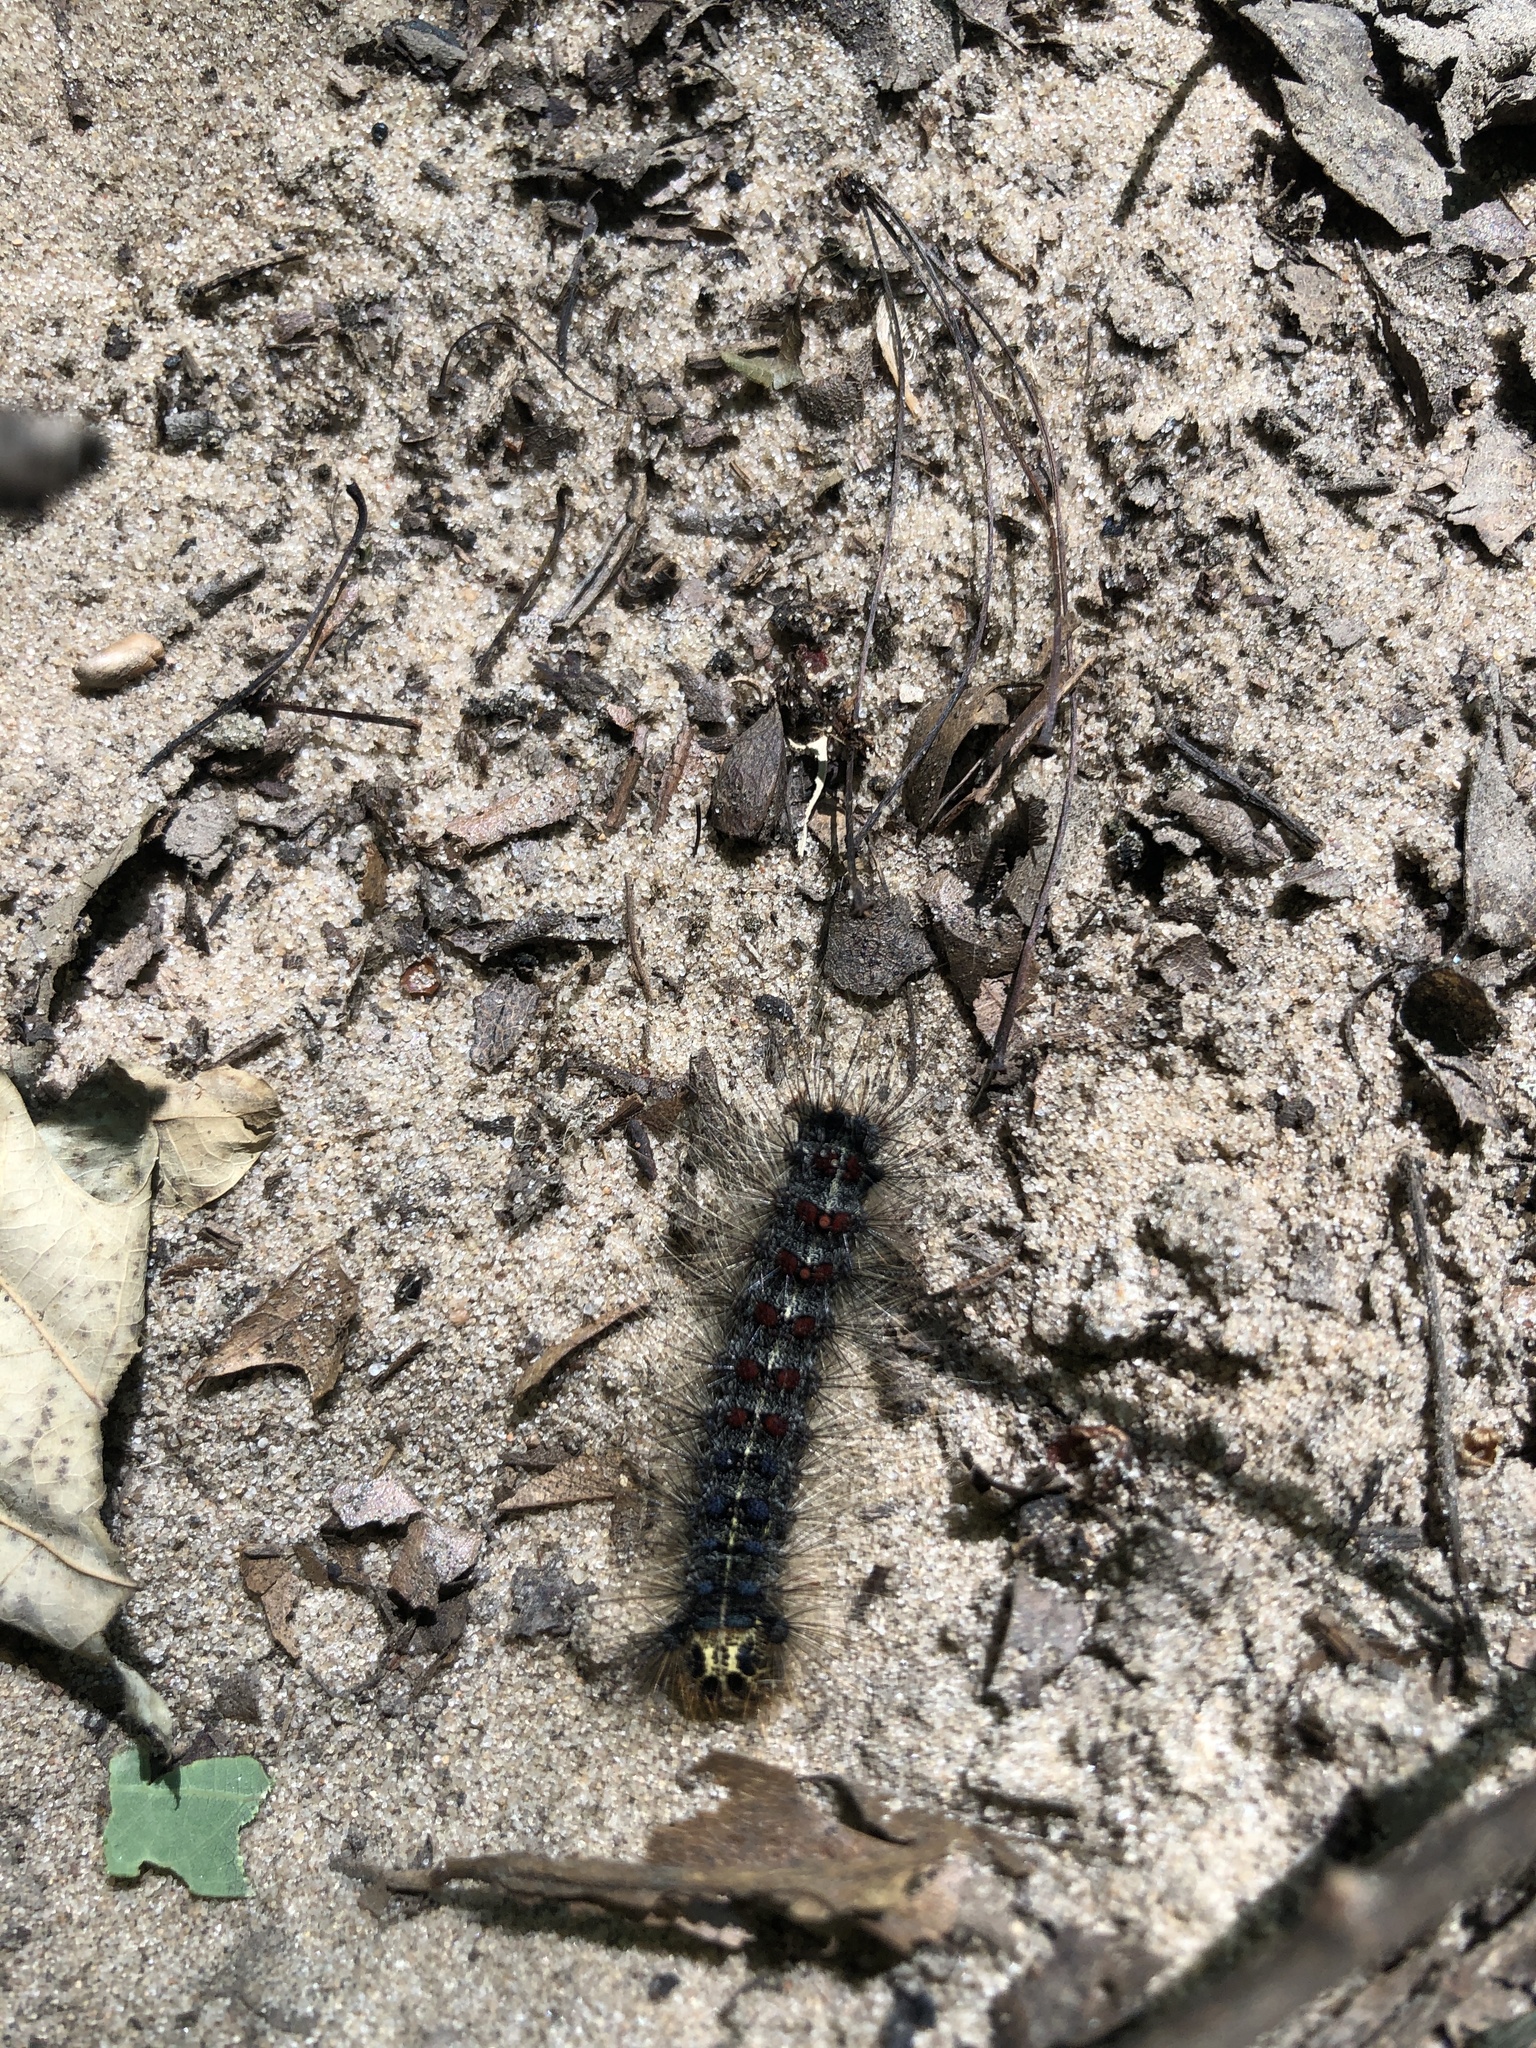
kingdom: Animalia
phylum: Arthropoda
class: Insecta
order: Lepidoptera
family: Erebidae
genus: Lymantria
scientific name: Lymantria dispar
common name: Gypsy moth
